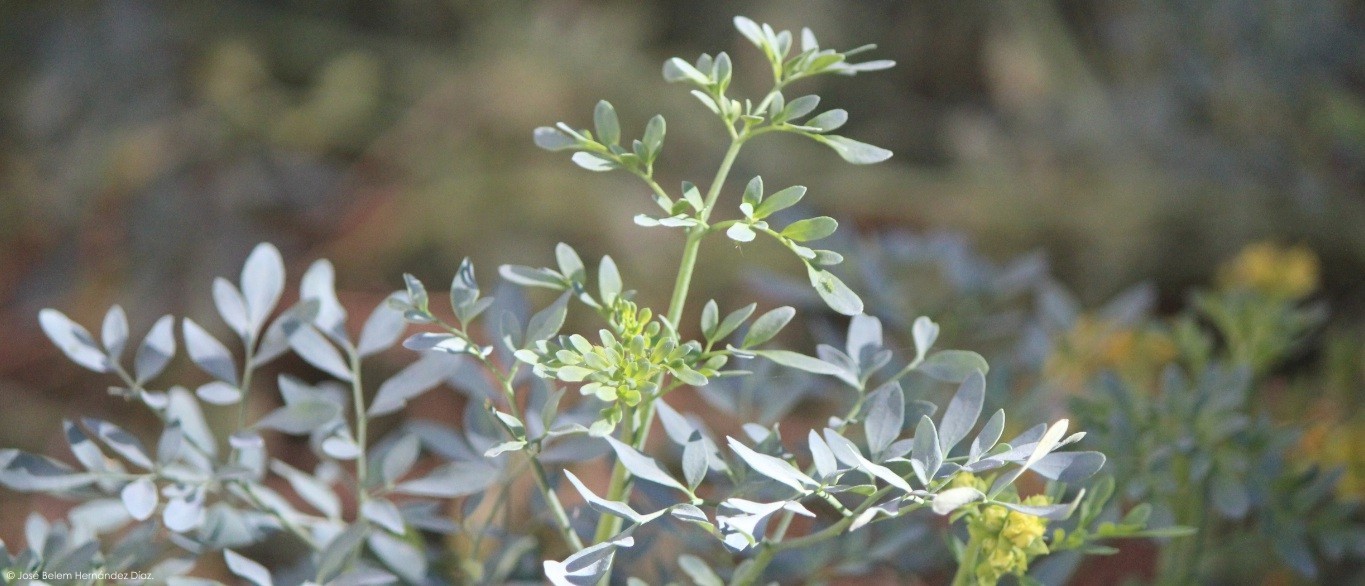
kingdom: Plantae
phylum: Tracheophyta
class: Magnoliopsida
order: Sapindales
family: Rutaceae
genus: Ruta
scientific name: Ruta chalepensis
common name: Fringed rue
